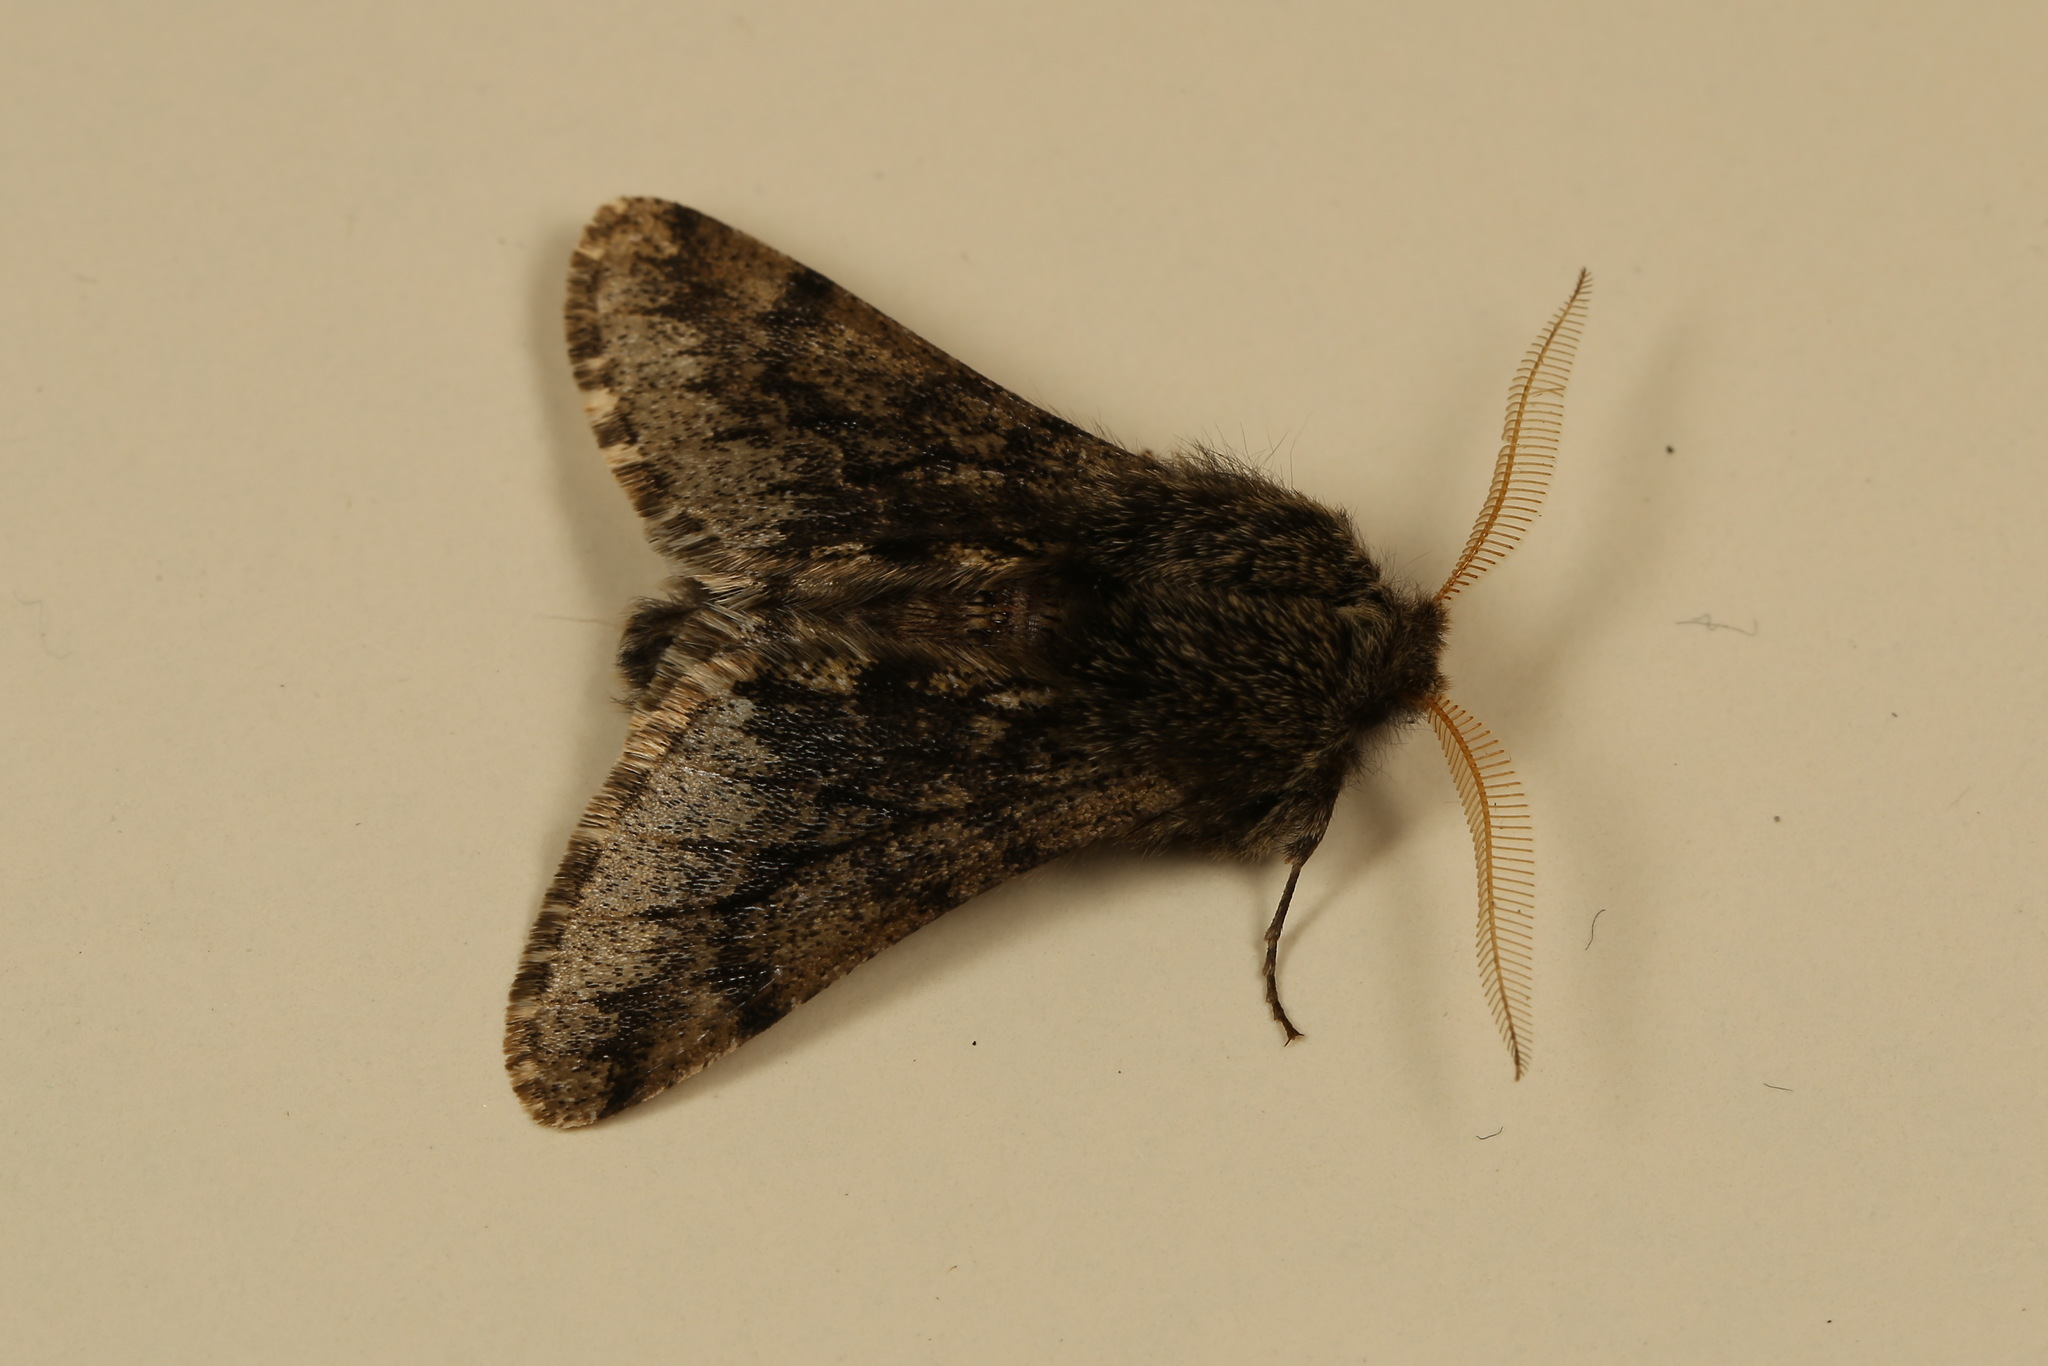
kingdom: Animalia
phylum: Arthropoda
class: Insecta
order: Lepidoptera
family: Geometridae
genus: Apocheima
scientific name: Apocheima hispidaria
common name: Small brindled beauty
